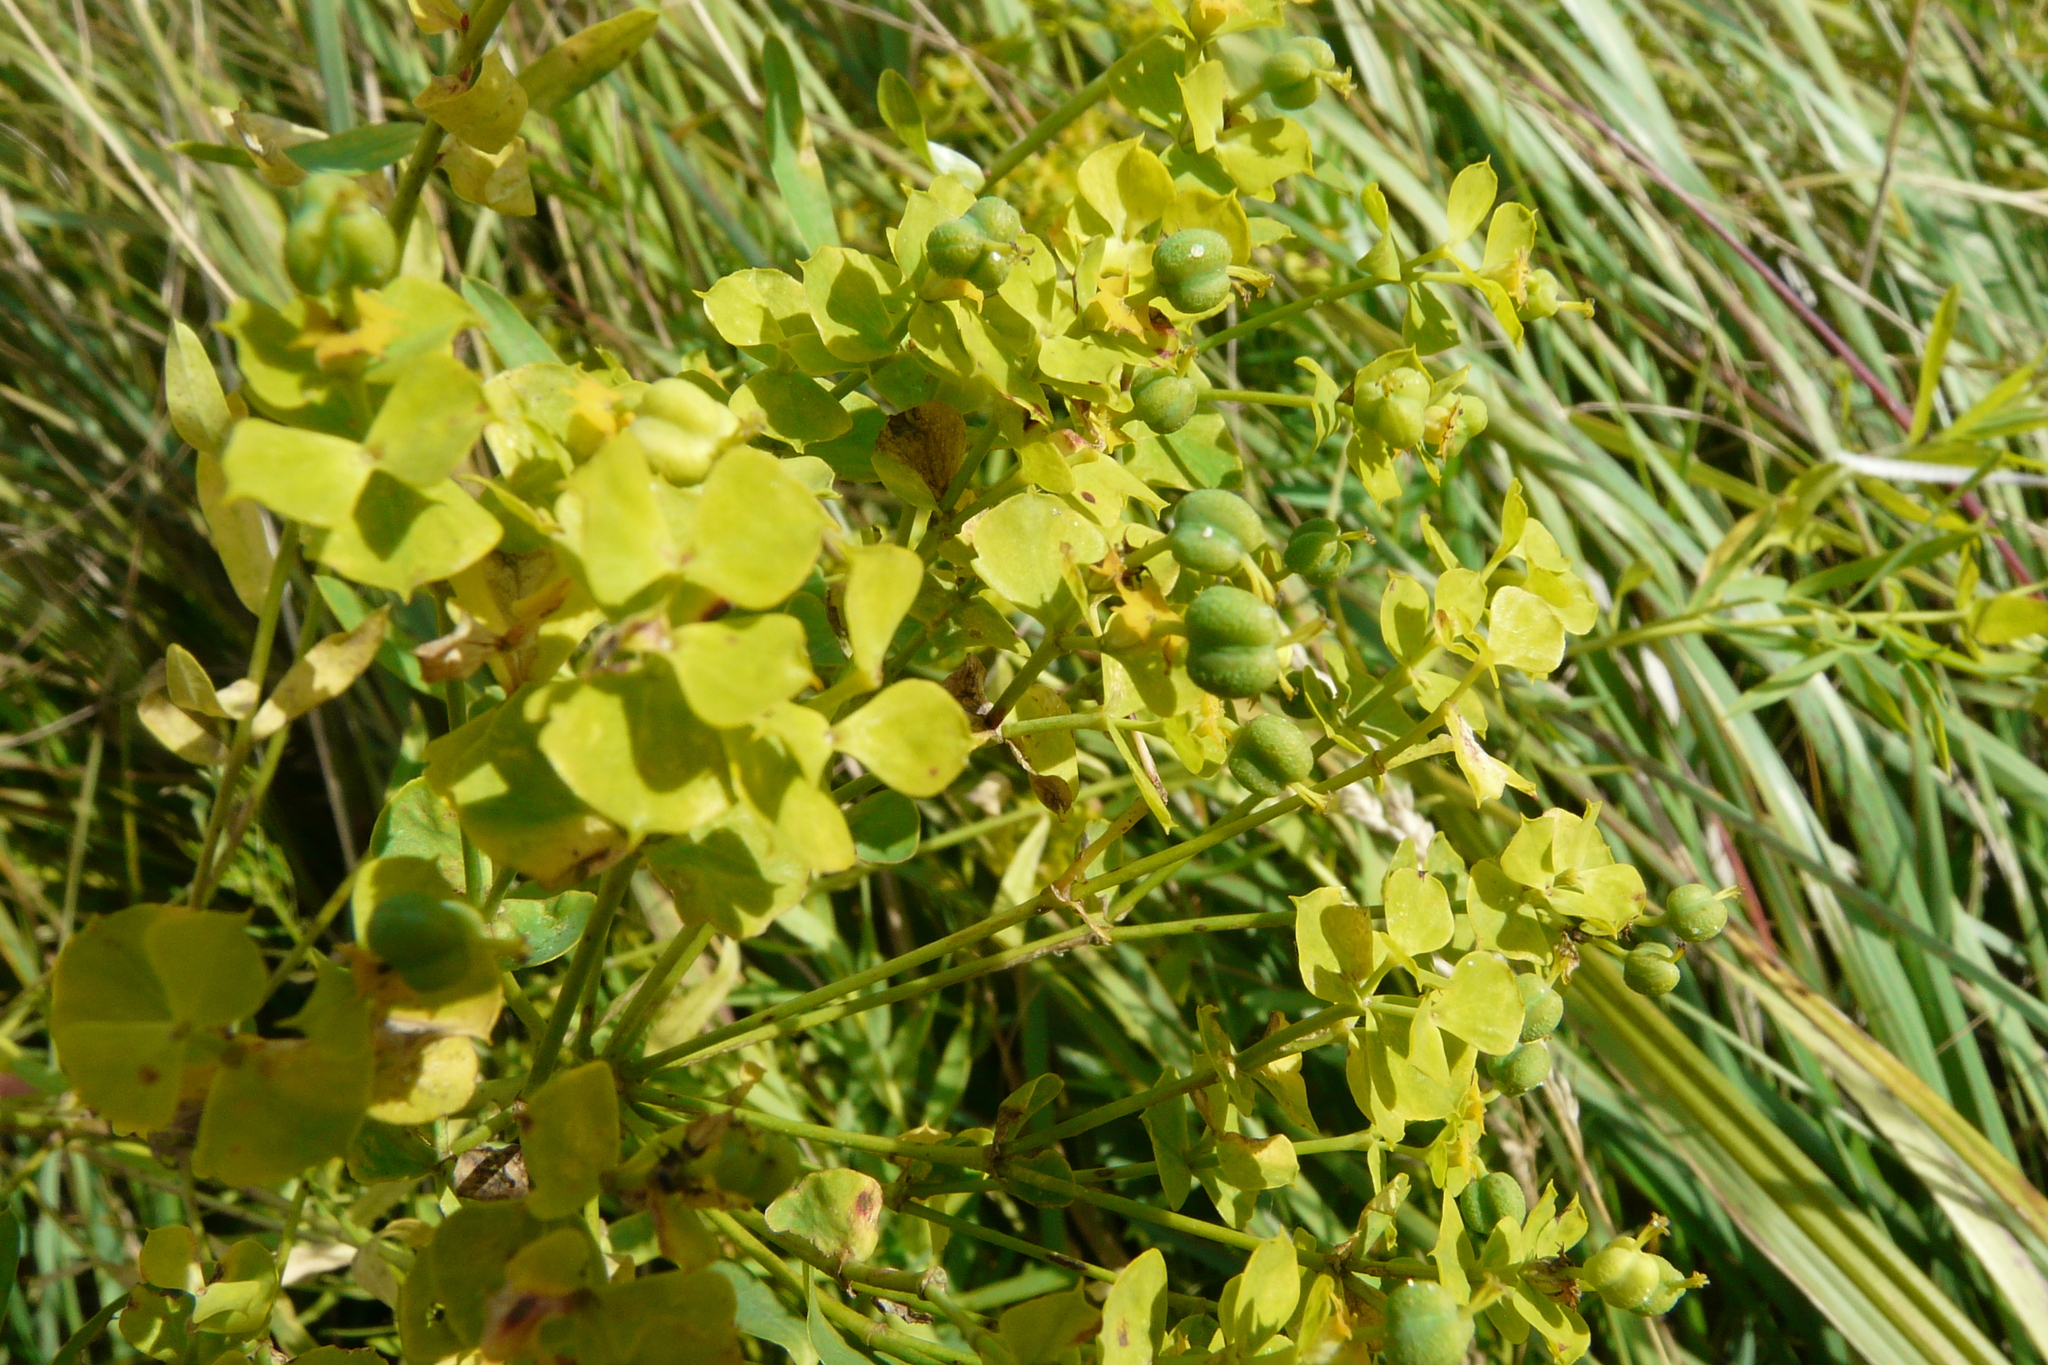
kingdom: Plantae
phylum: Tracheophyta
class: Magnoliopsida
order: Malpighiales
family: Euphorbiaceae
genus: Euphorbia
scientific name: Euphorbia virgata
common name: Leafy spurge
